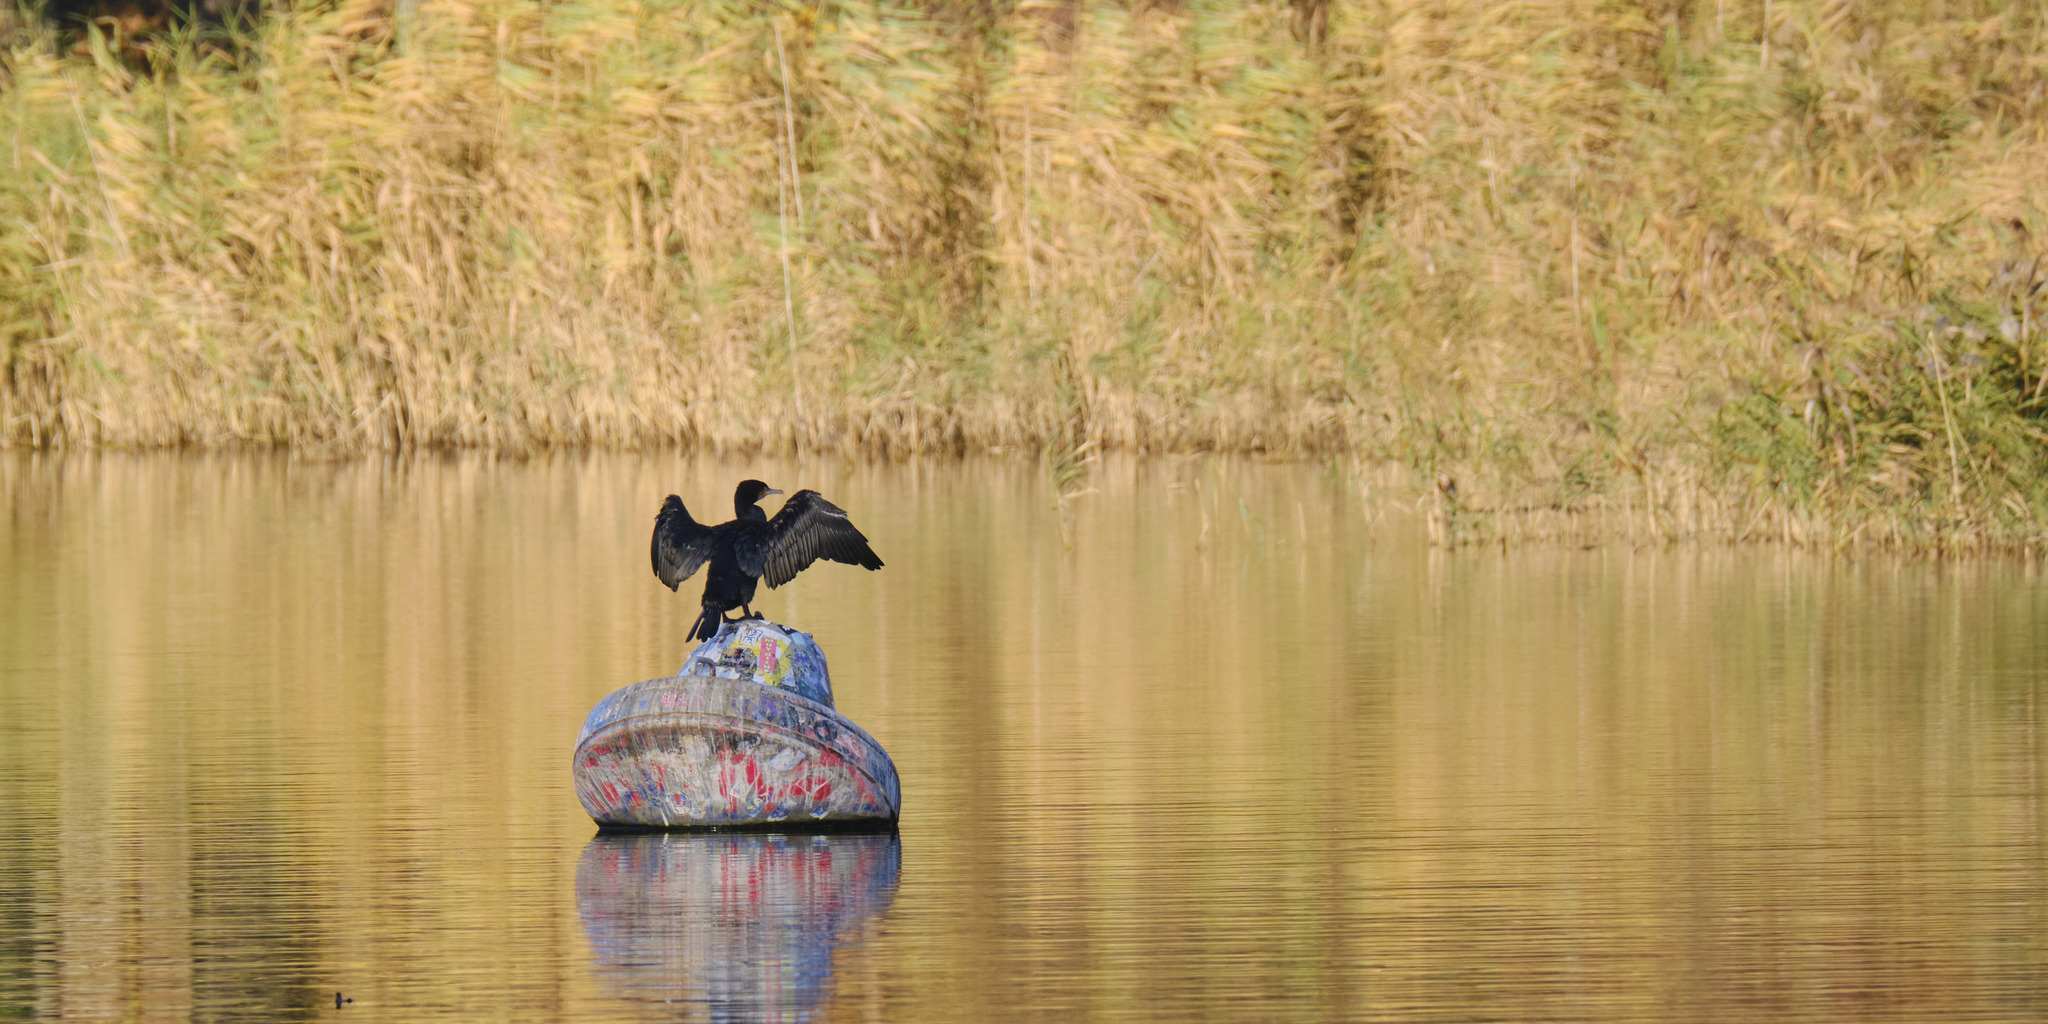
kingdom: Animalia
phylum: Chordata
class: Aves
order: Suliformes
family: Phalacrocoracidae
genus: Phalacrocorax
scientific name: Phalacrocorax carbo
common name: Great cormorant
